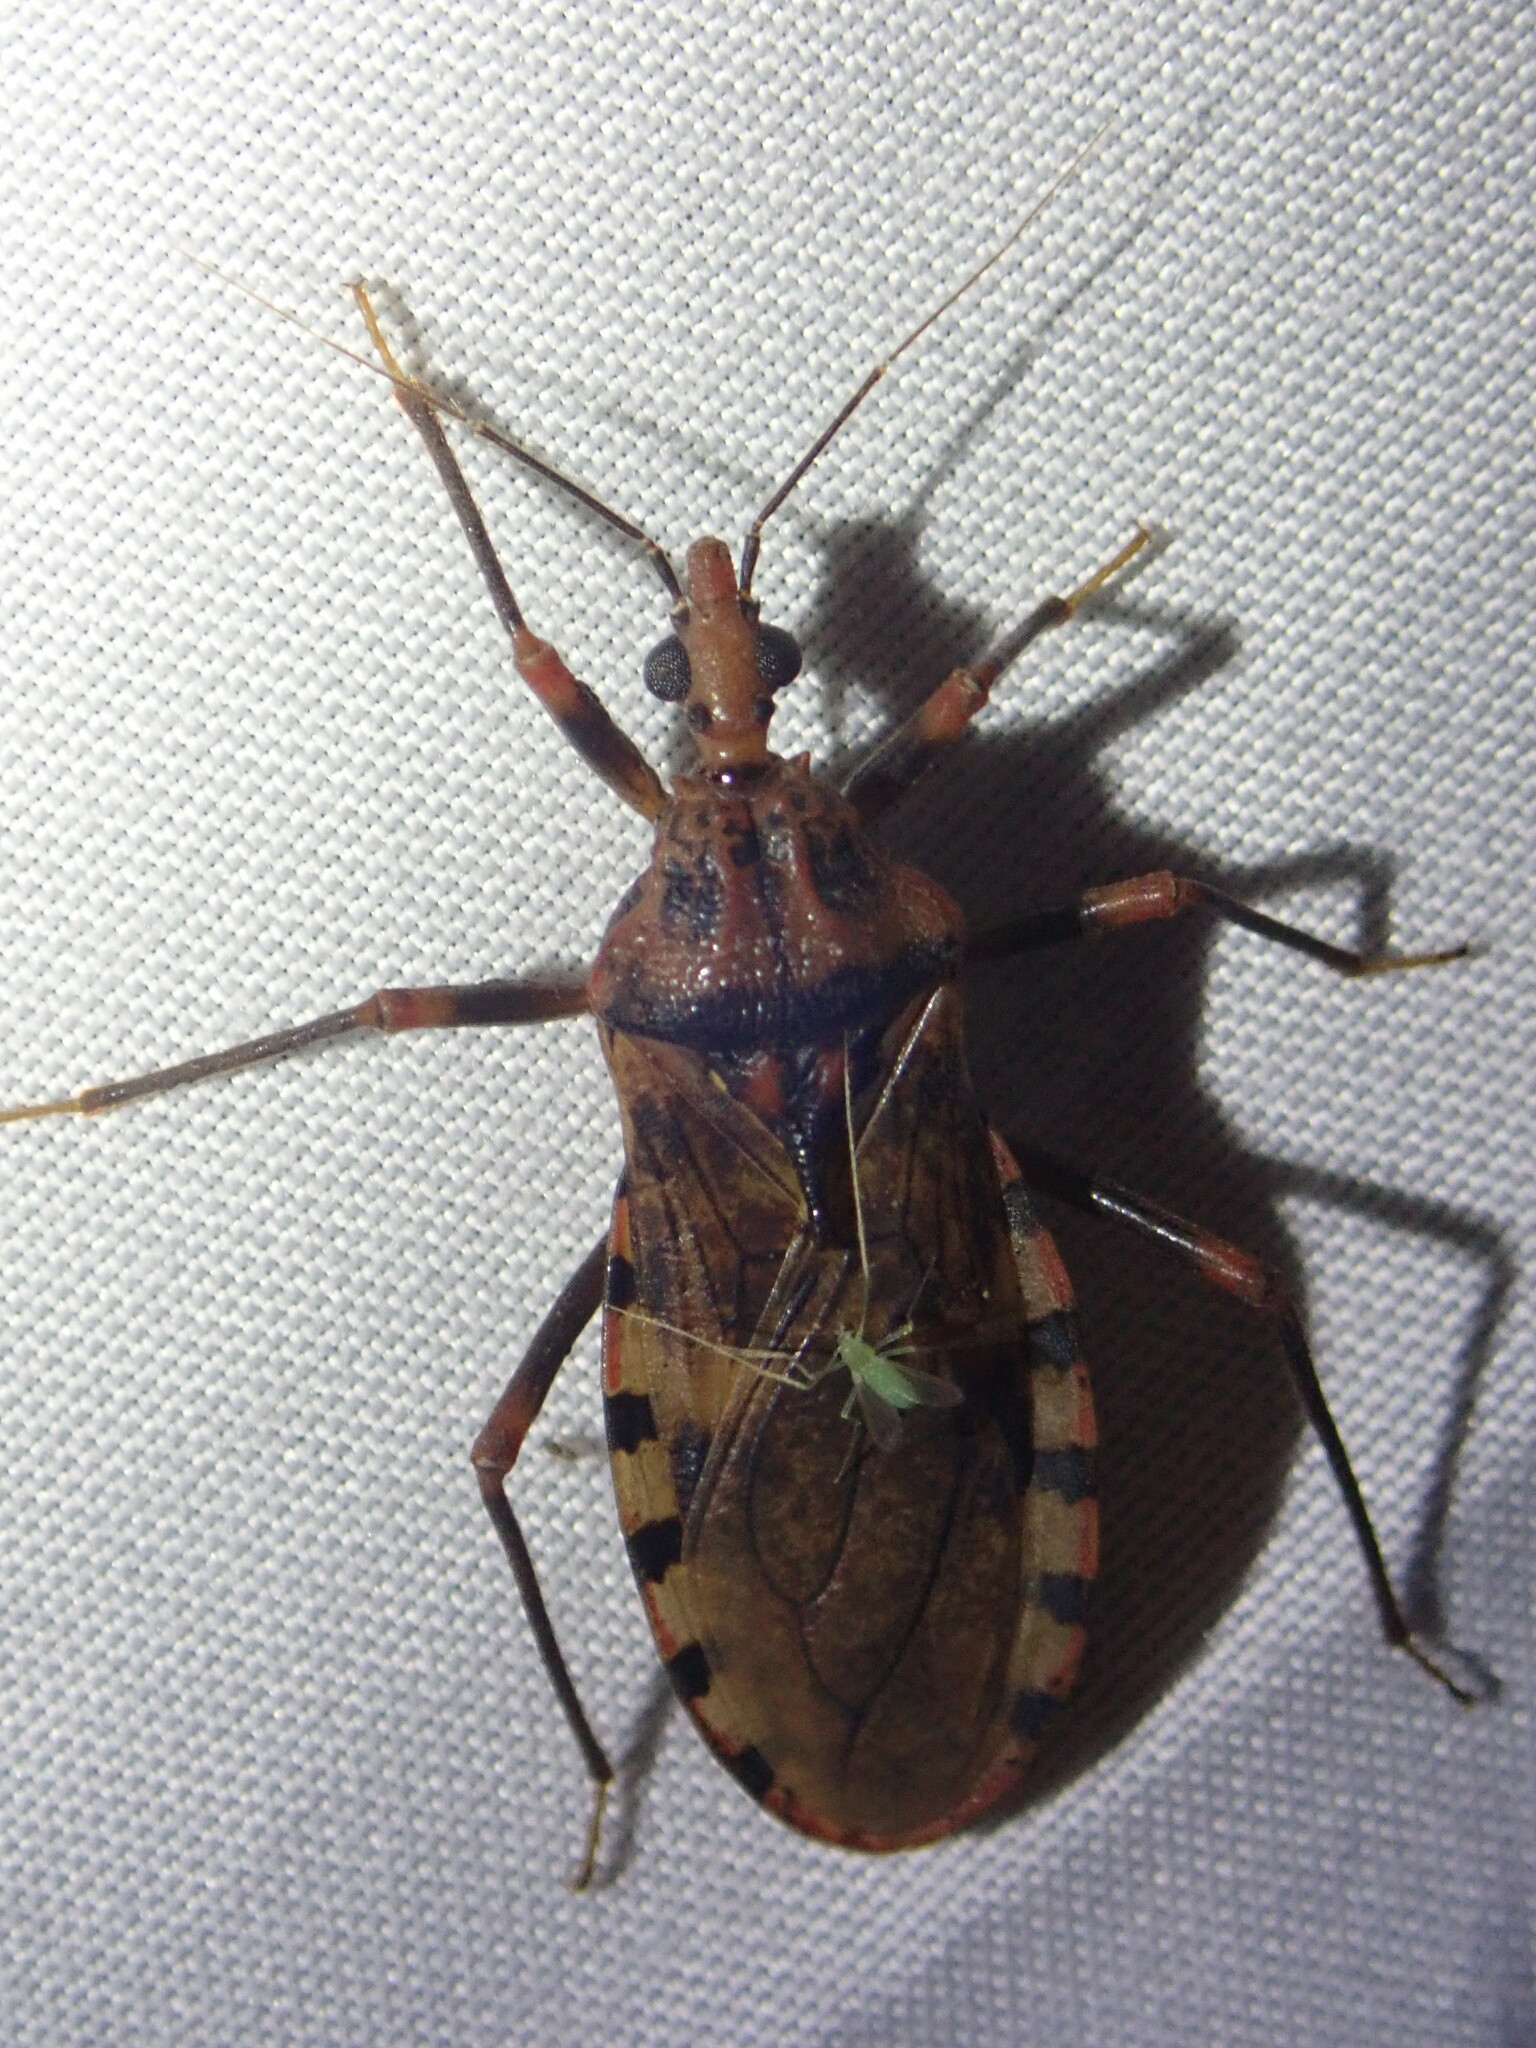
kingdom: Animalia
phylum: Arthropoda
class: Insecta
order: Hemiptera
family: Reduviidae
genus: Panstrongylus
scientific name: Panstrongylus geniculatus
